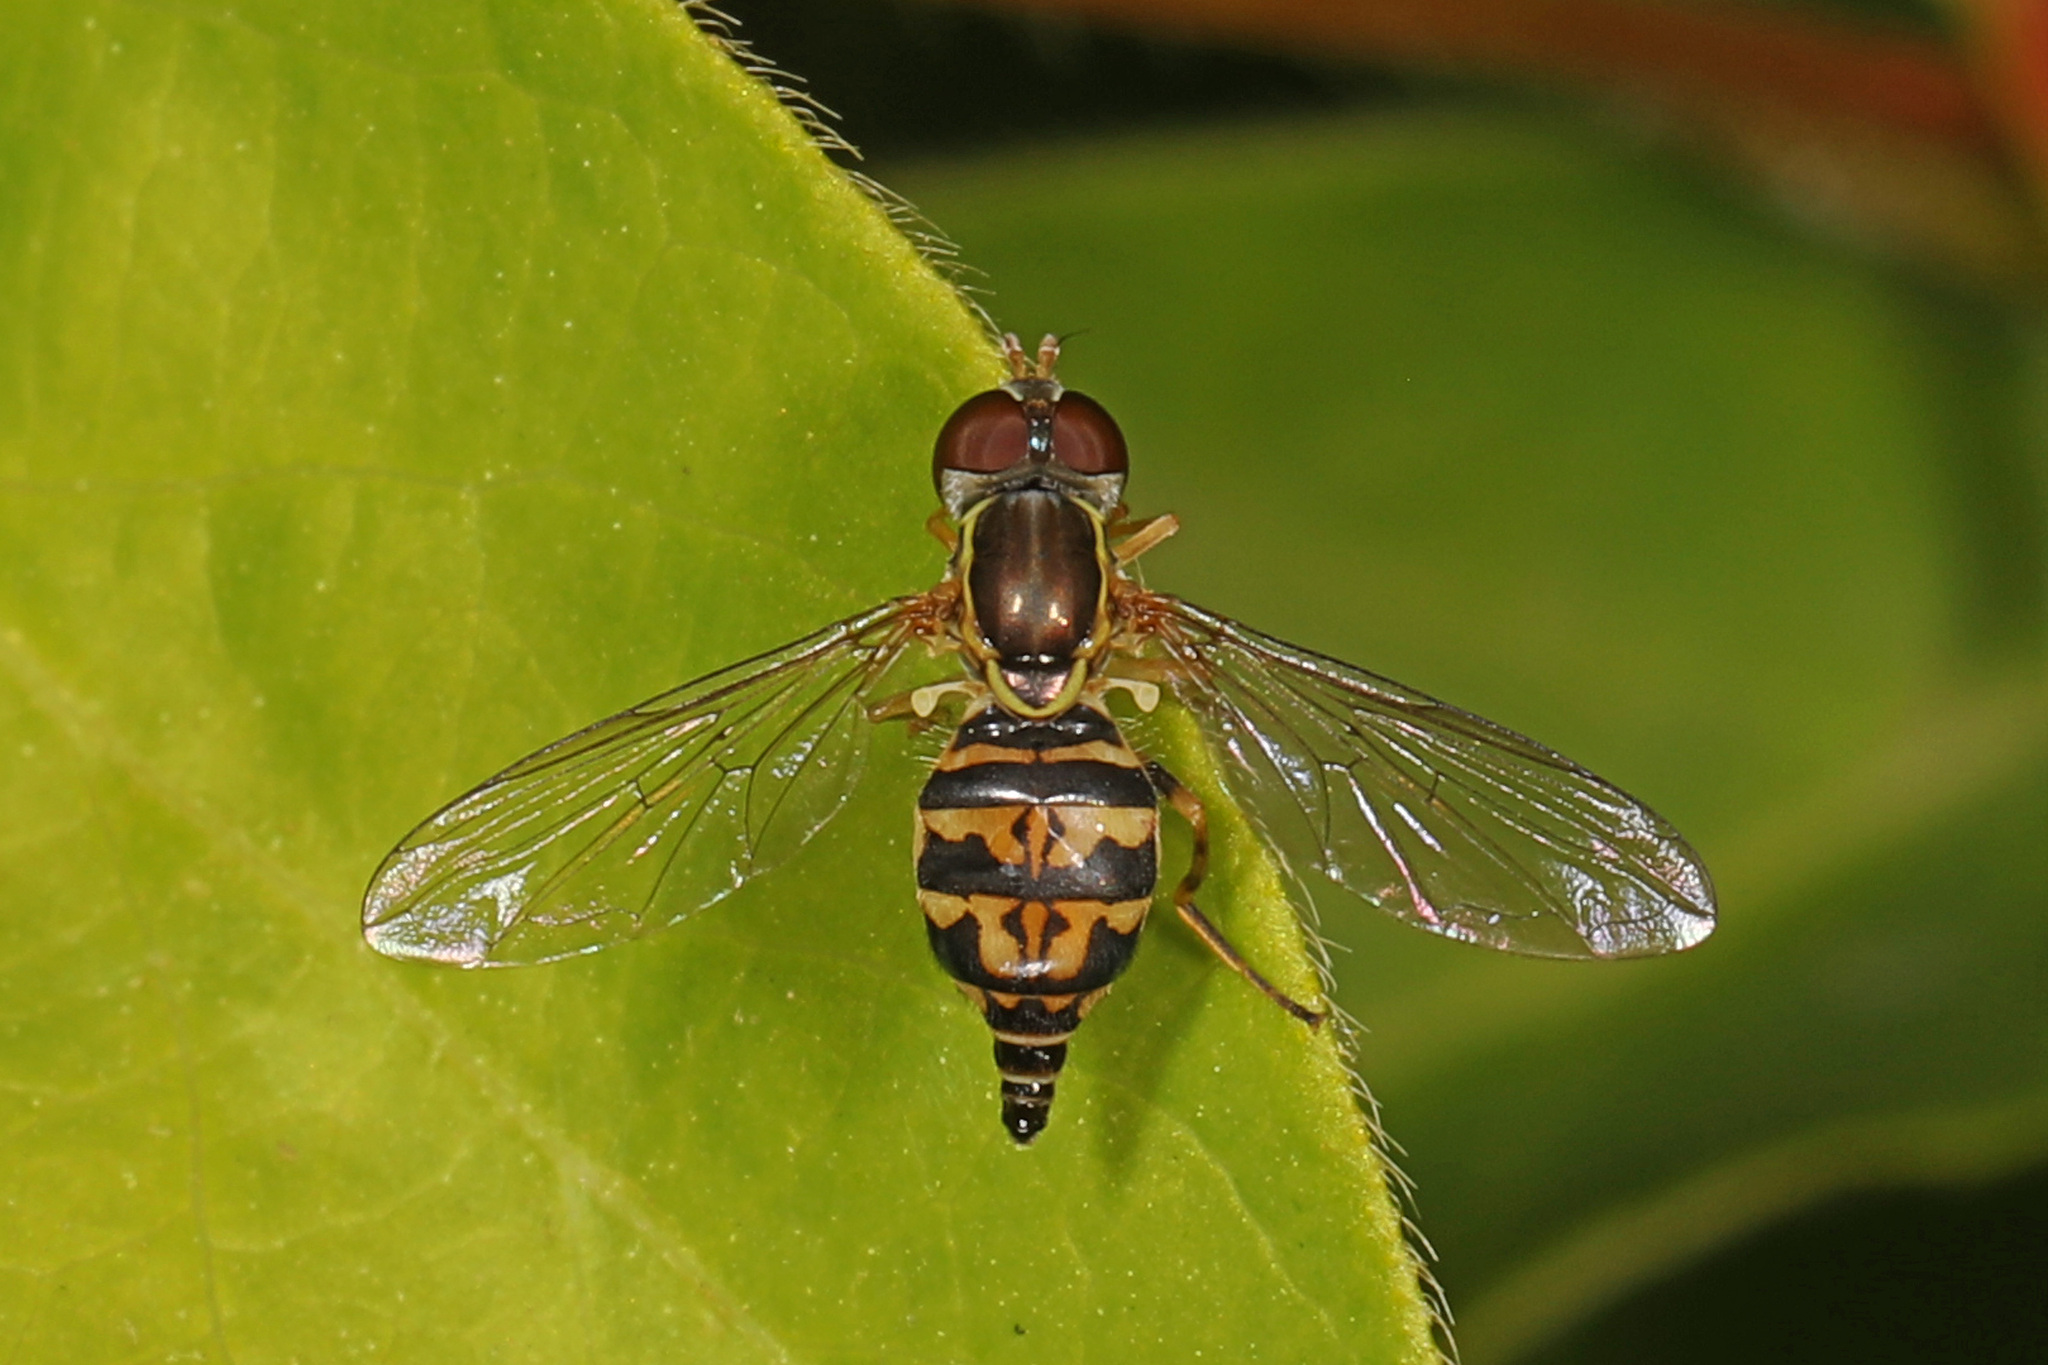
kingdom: Animalia
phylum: Arthropoda
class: Insecta
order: Diptera
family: Syrphidae
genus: Toxomerus
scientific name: Toxomerus geminatus
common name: Eastern calligrapher
